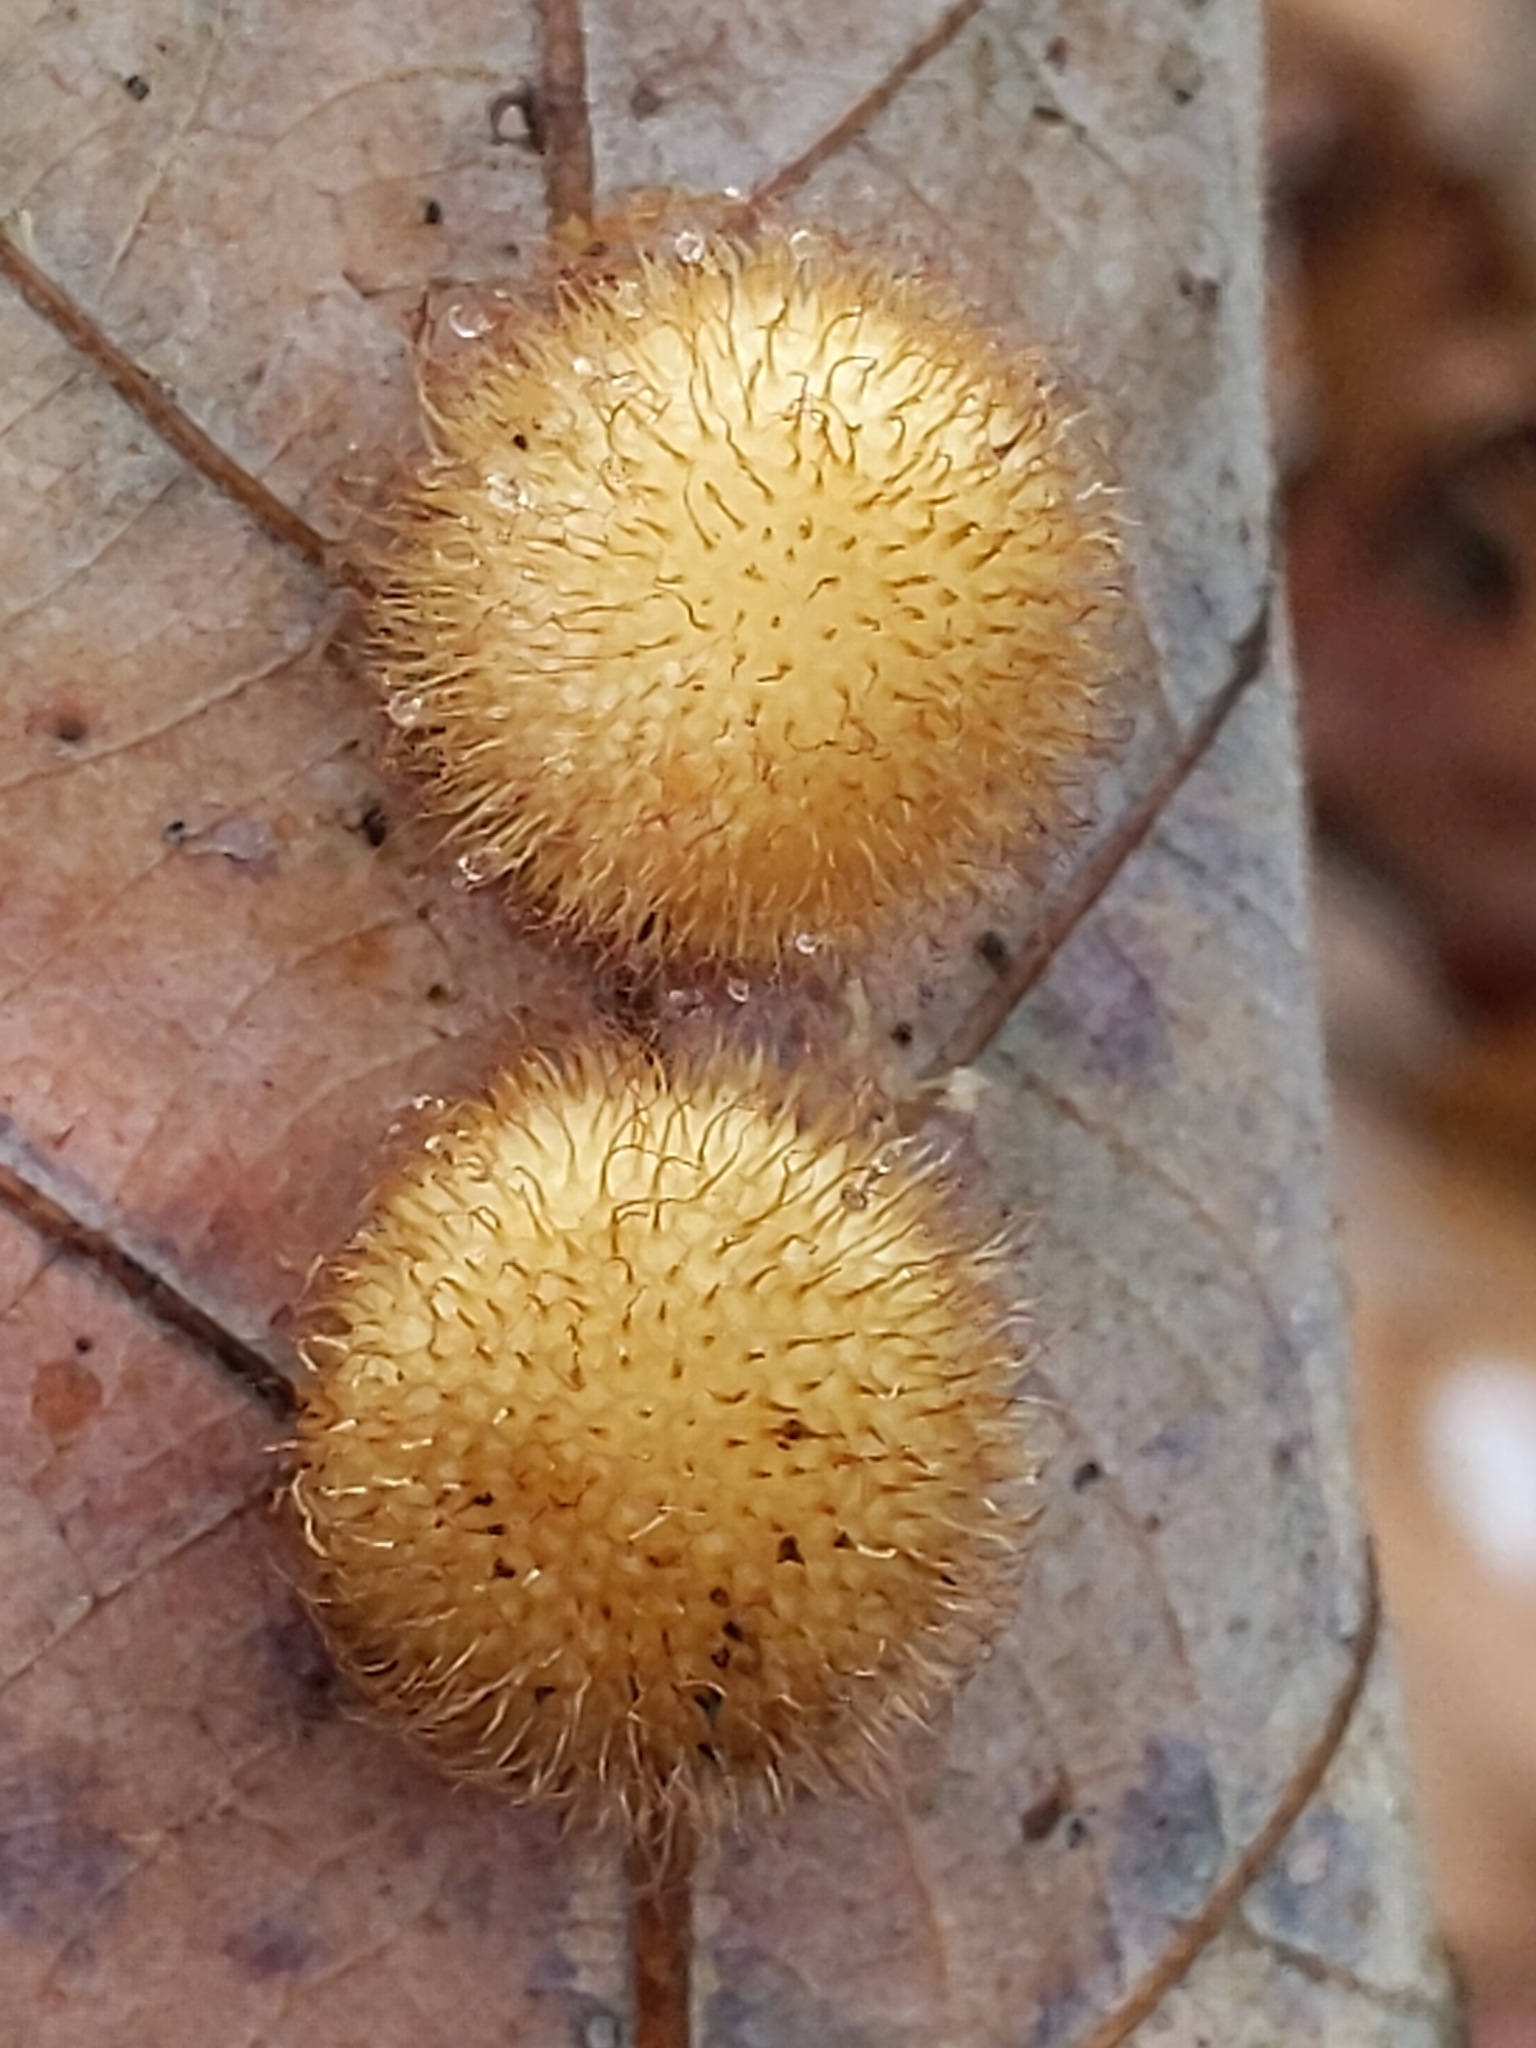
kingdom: Animalia
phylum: Arthropoda
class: Insecta
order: Hymenoptera
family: Cynipidae
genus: Acraspis
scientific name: Acraspis villosa
